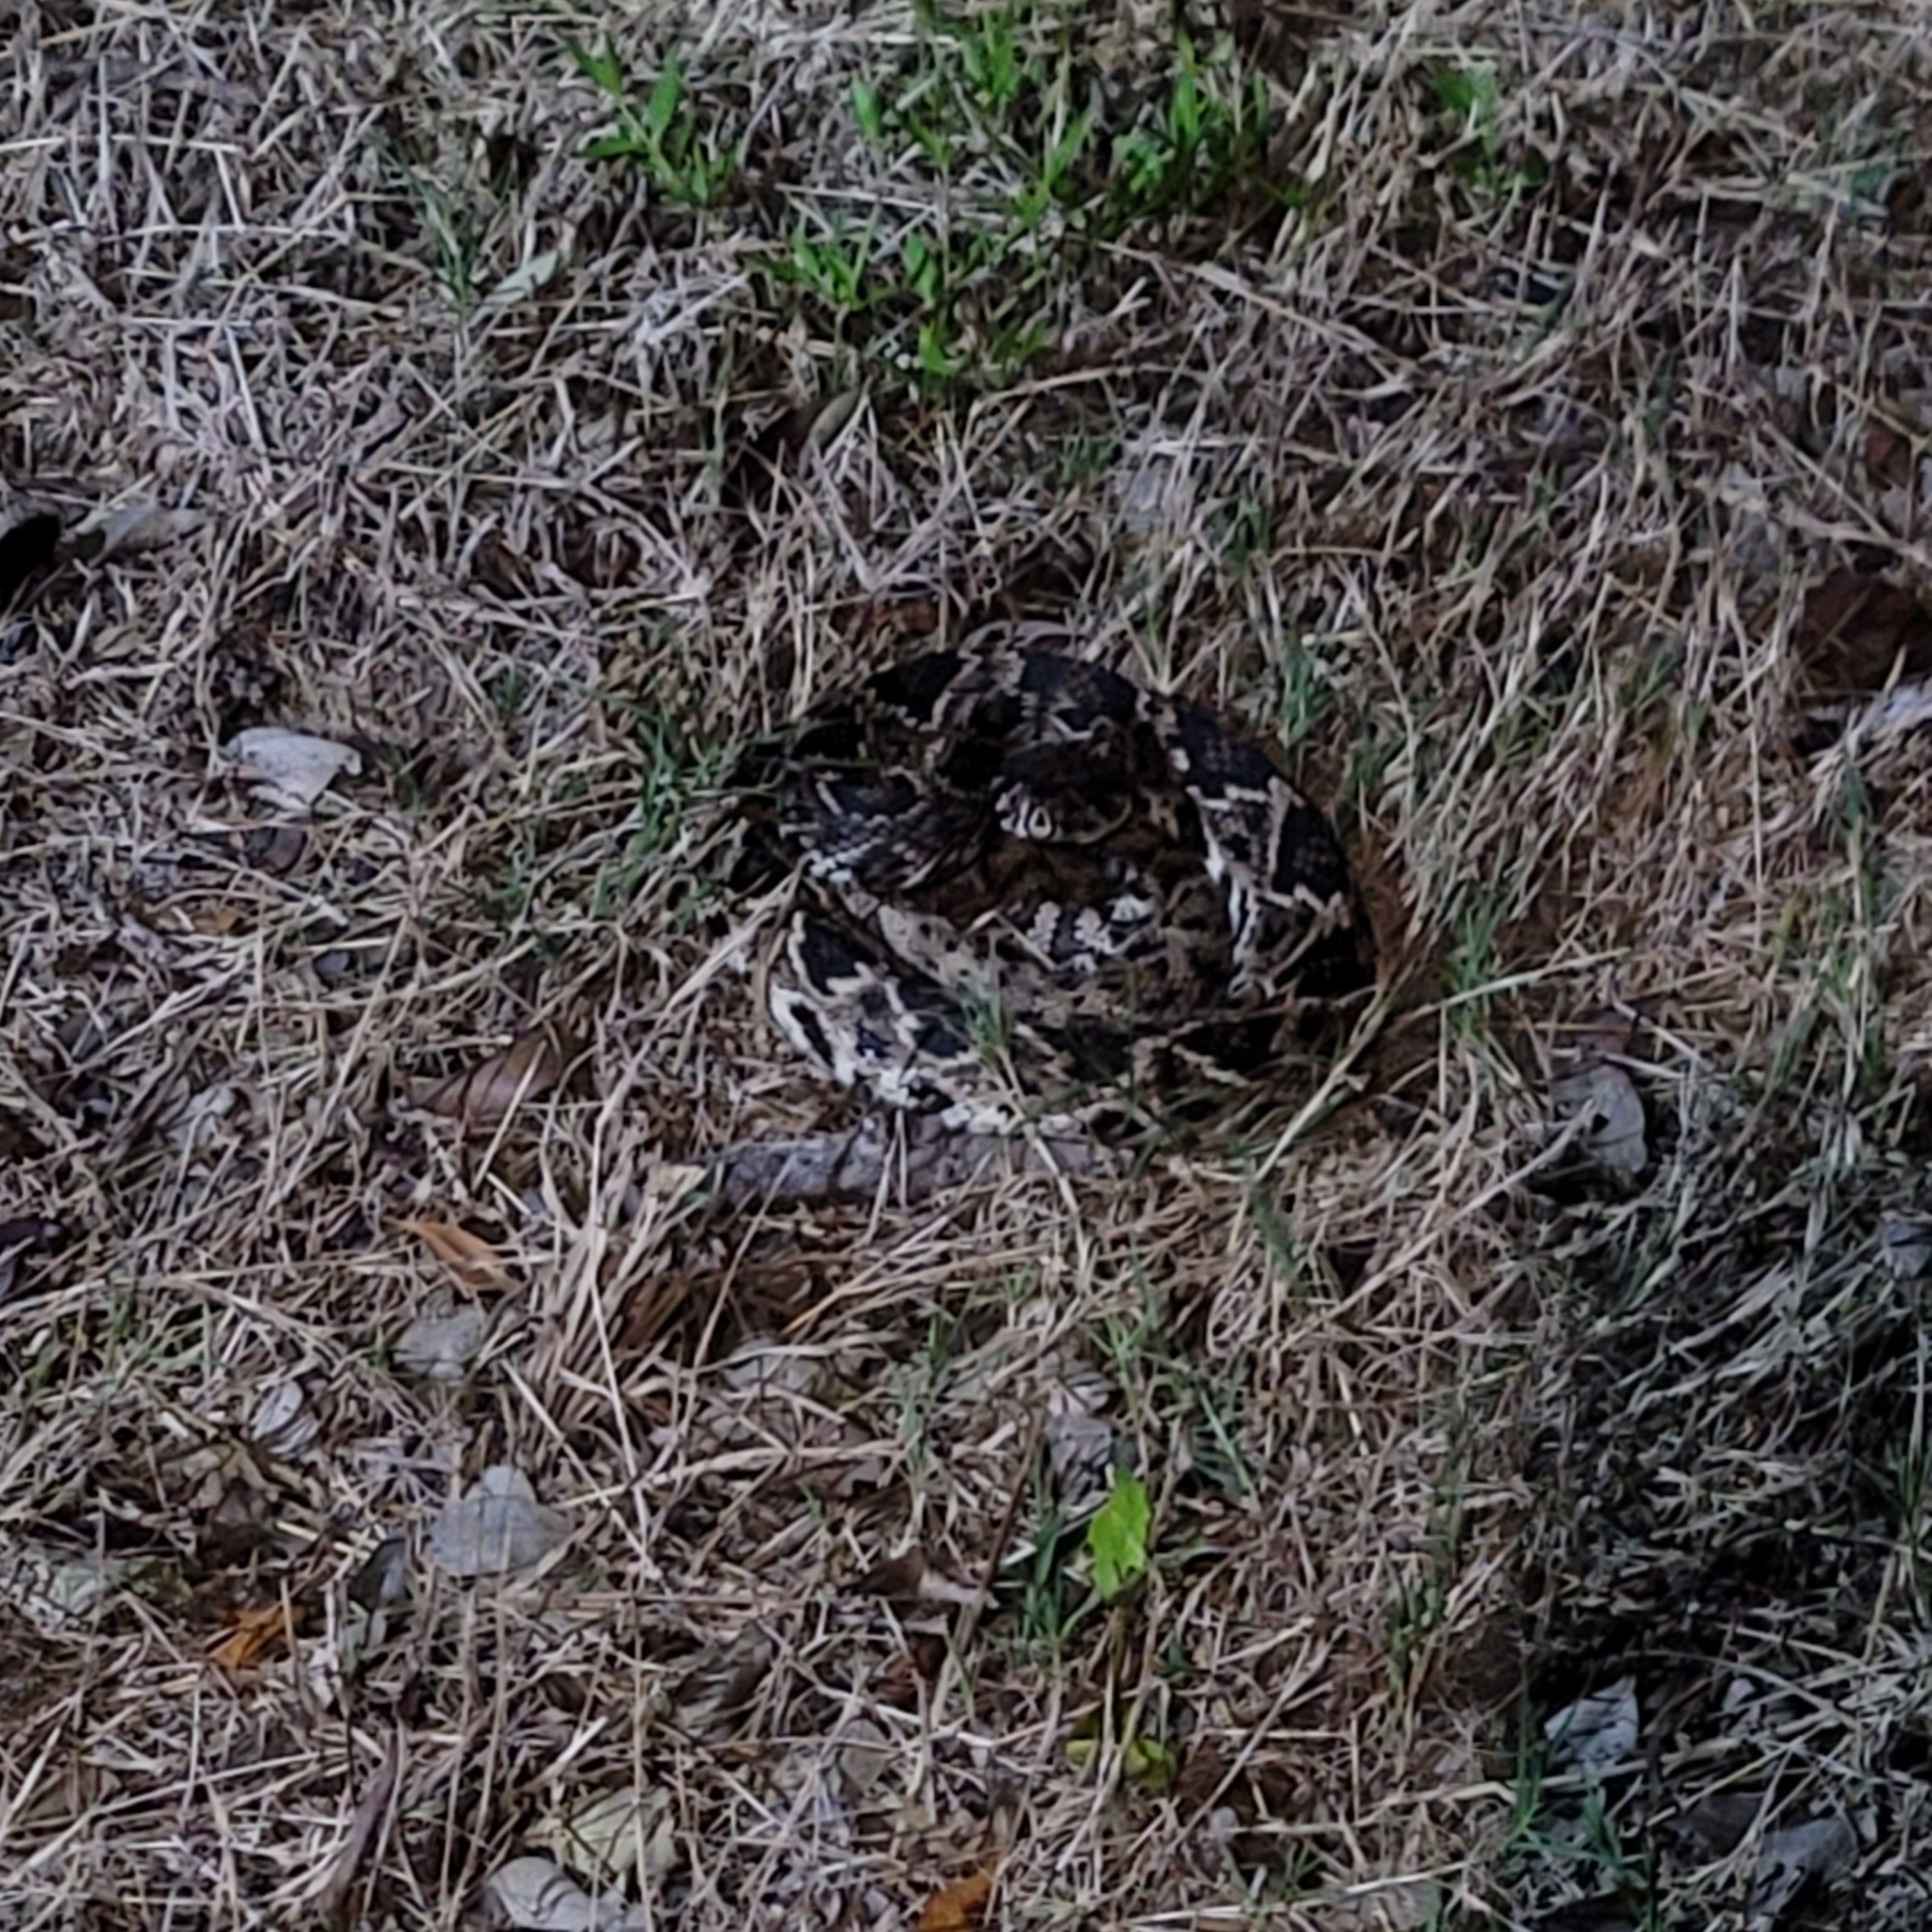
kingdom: Animalia
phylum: Chordata
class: Squamata
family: Viperidae
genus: Crotalus
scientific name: Crotalus adamanteus
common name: Eastern diamondback rattlesnake
